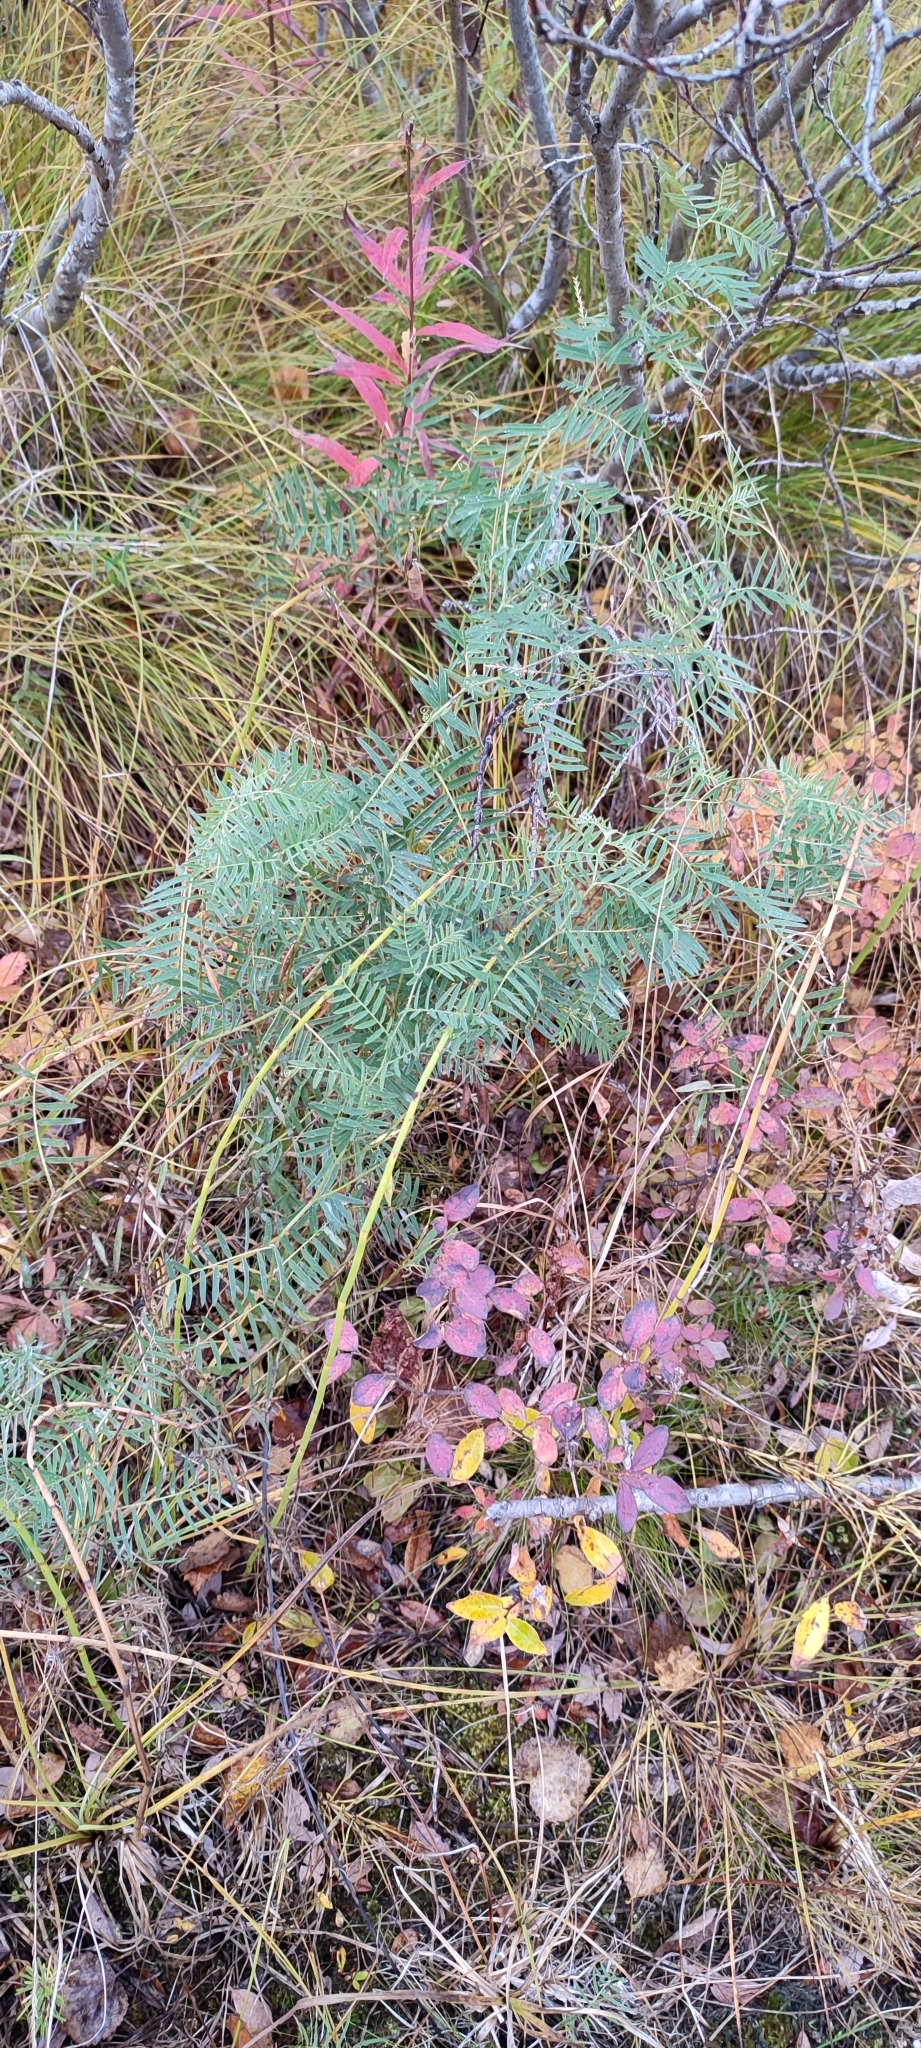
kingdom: Plantae
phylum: Tracheophyta
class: Magnoliopsida
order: Fabales
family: Fabaceae
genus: Vicia
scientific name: Vicia cracca
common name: Bird vetch
